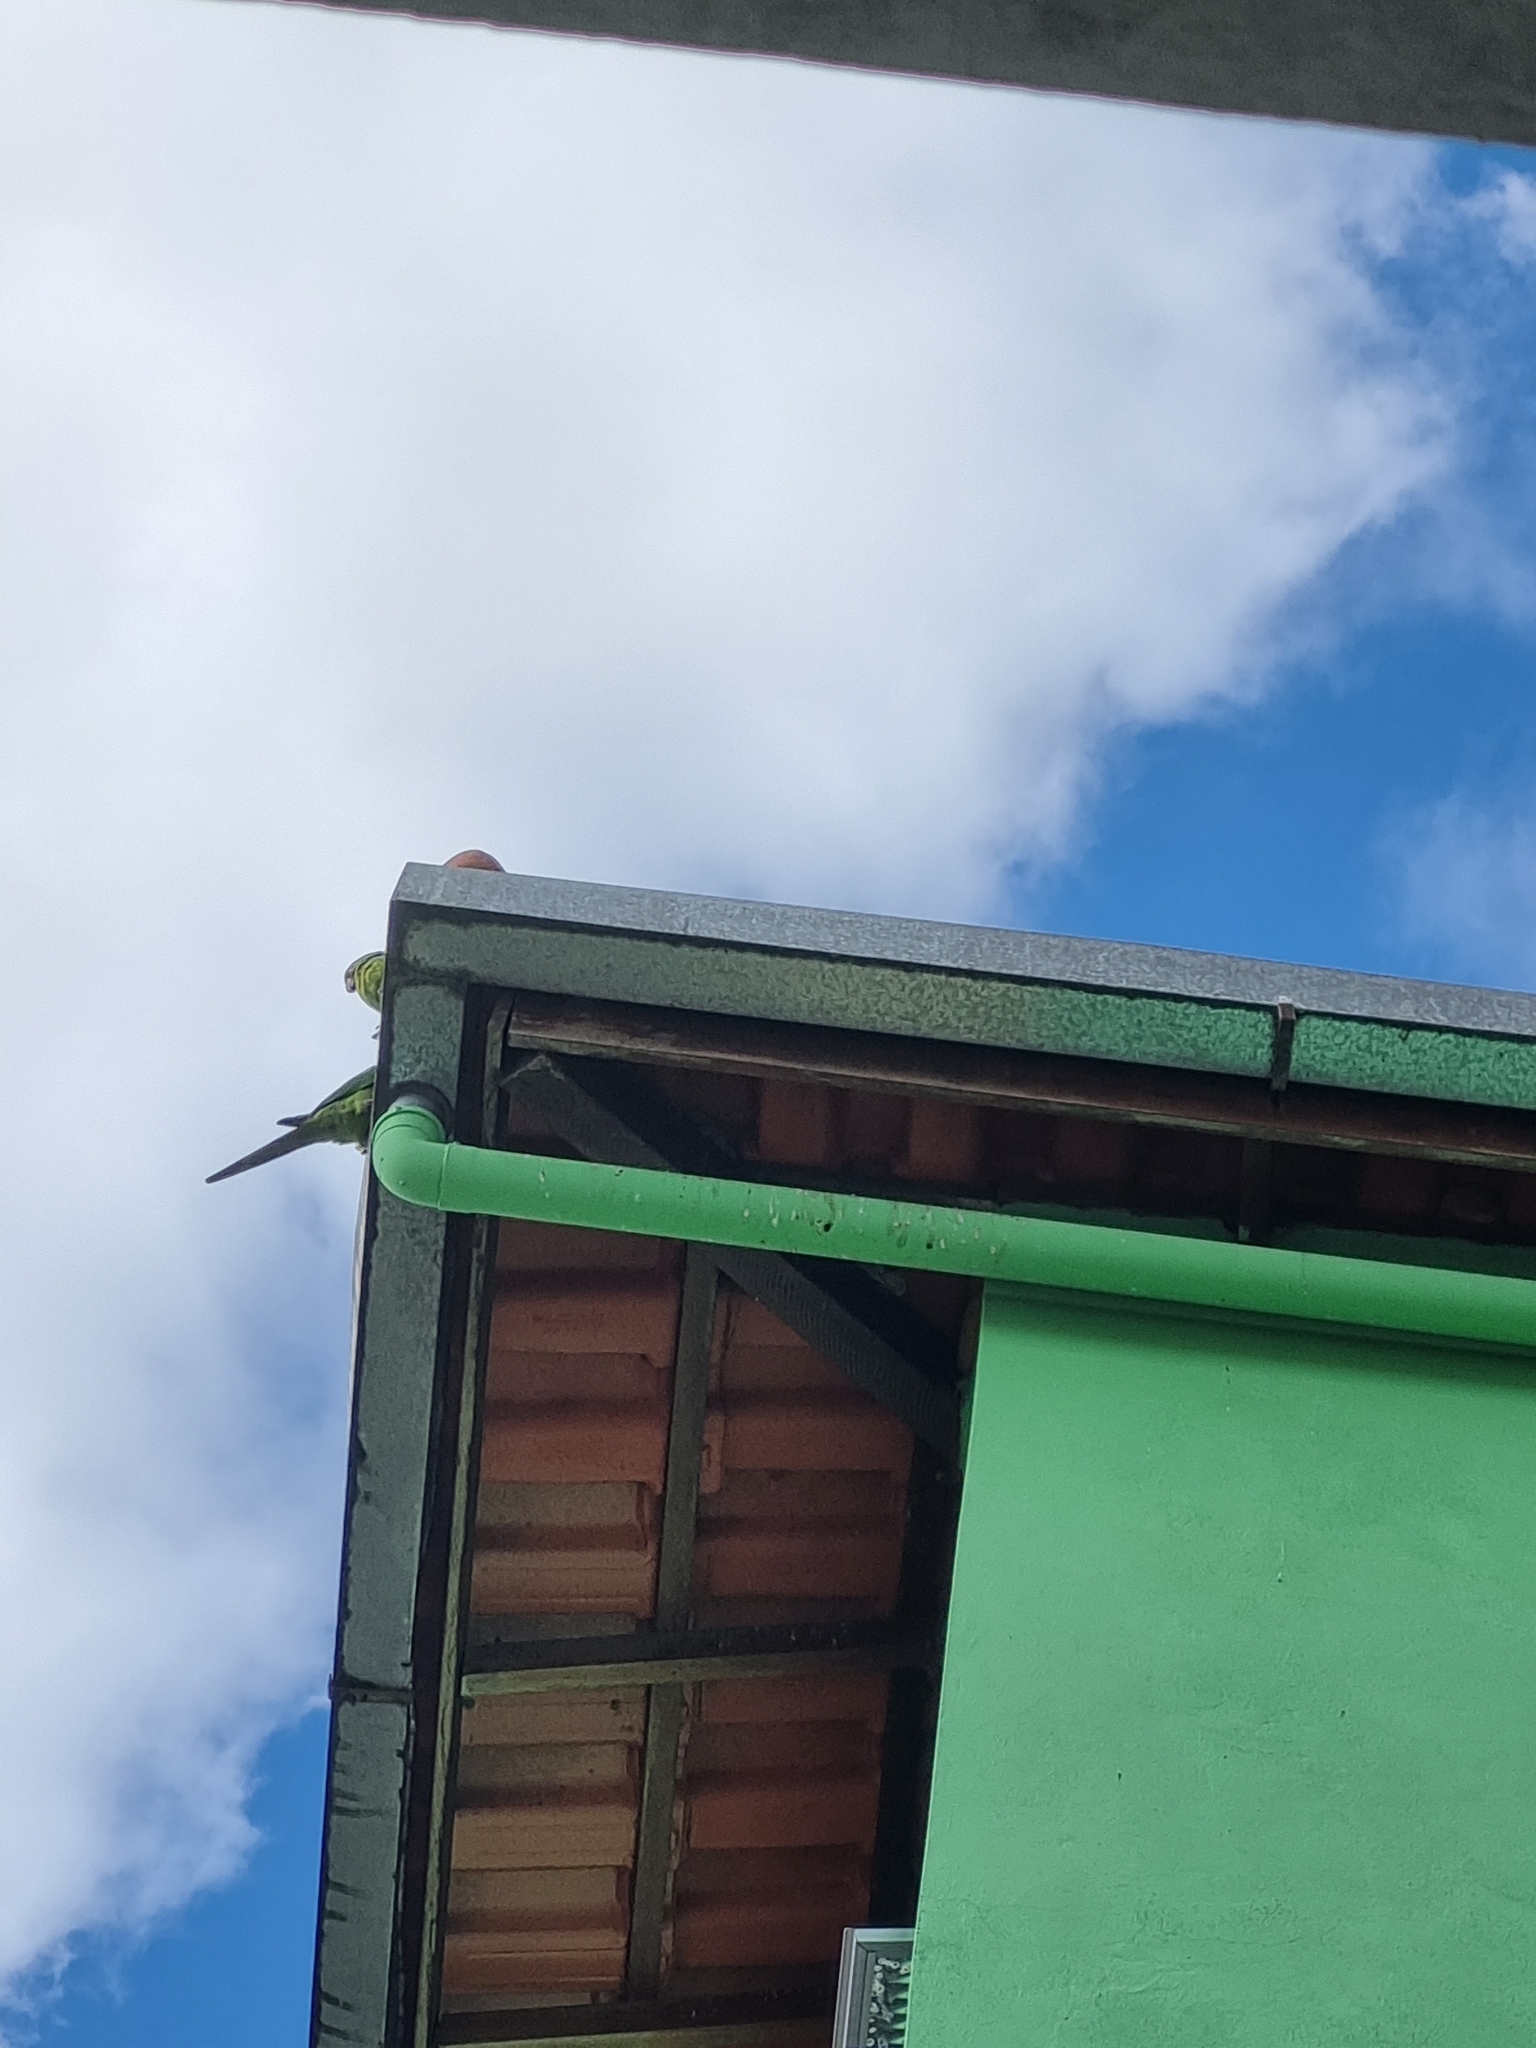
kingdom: Animalia
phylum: Chordata
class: Aves
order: Psittaciformes
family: Psittacidae
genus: Aratinga
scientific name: Aratinga leucophthalma
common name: White-eyed parakeet
